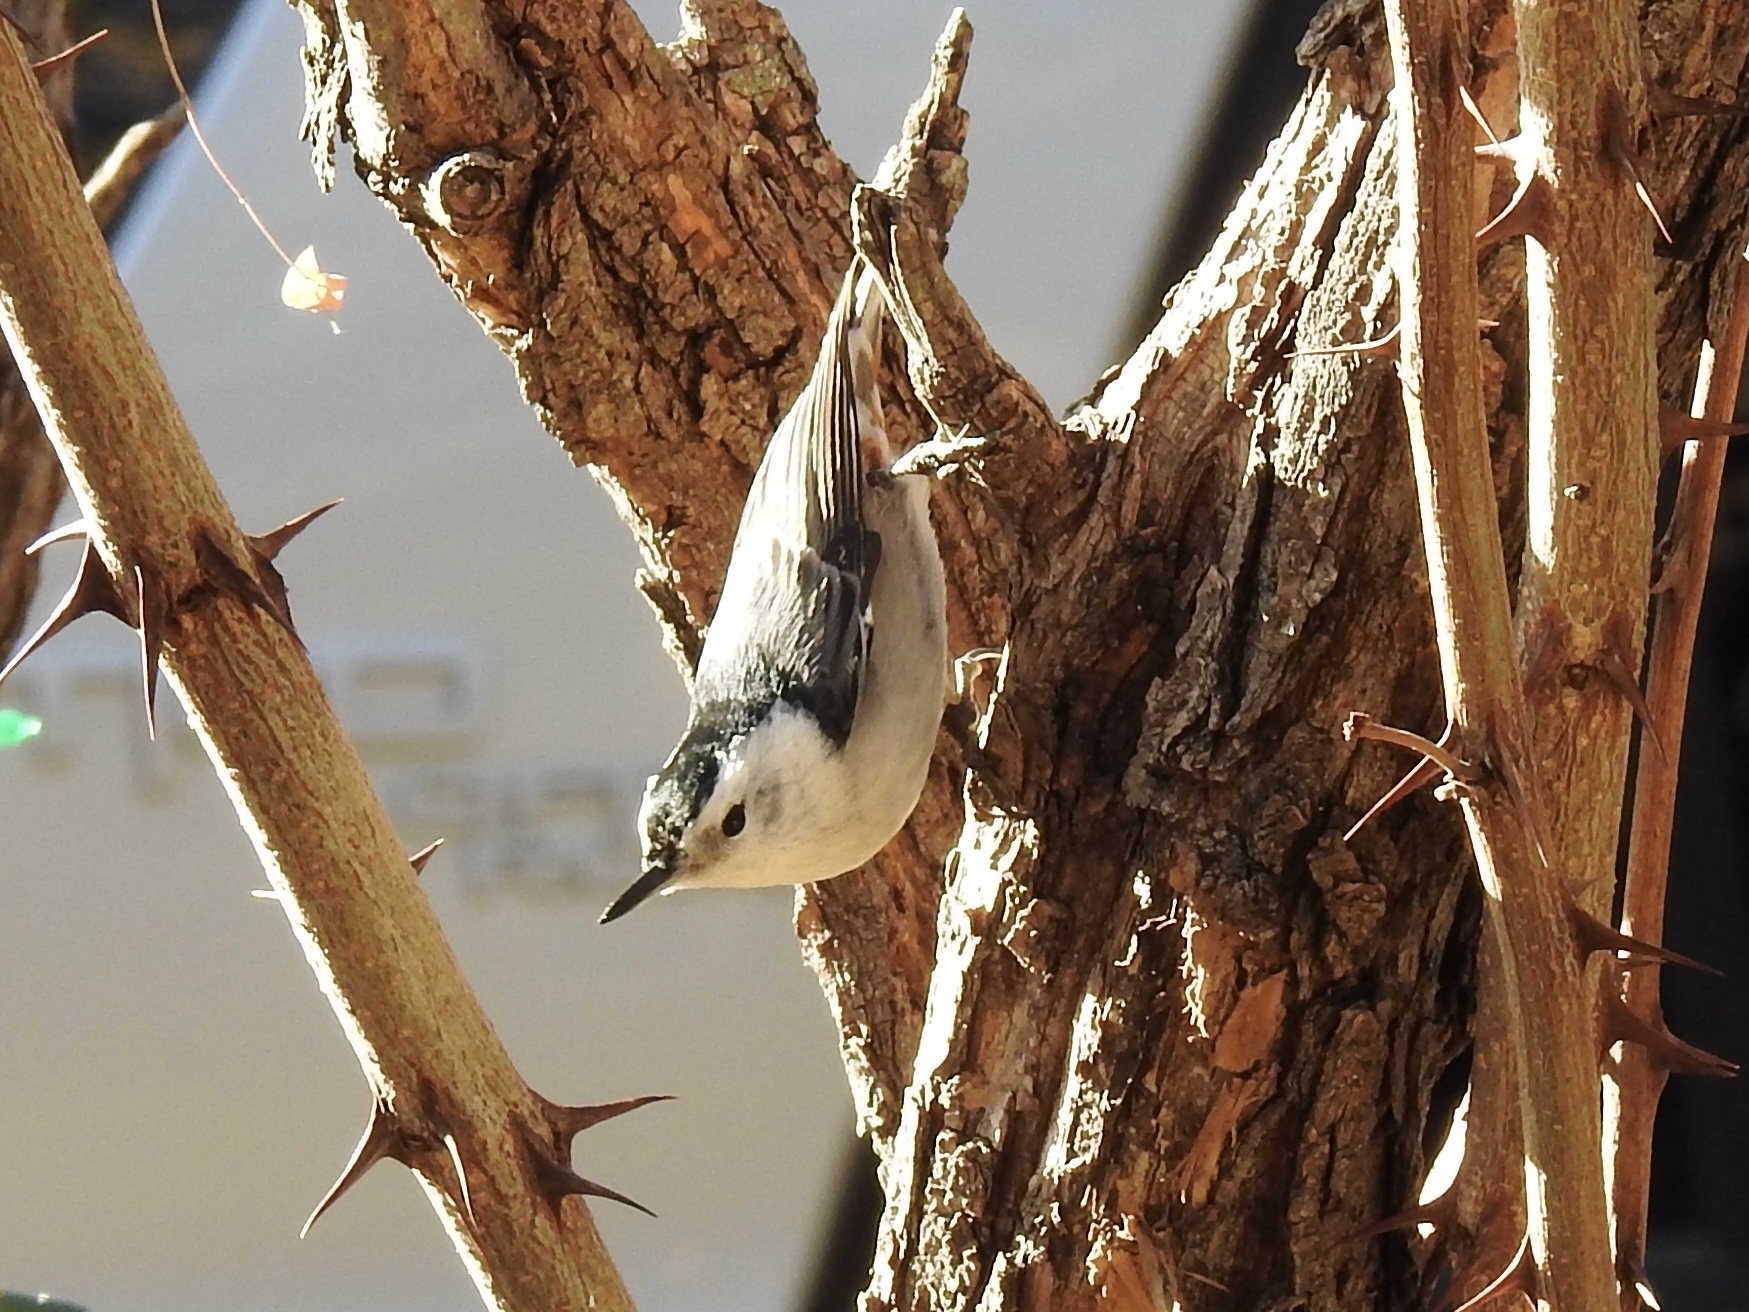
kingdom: Animalia
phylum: Chordata
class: Aves
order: Passeriformes
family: Sittidae
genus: Sitta
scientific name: Sitta carolinensis
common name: White-breasted nuthatch
